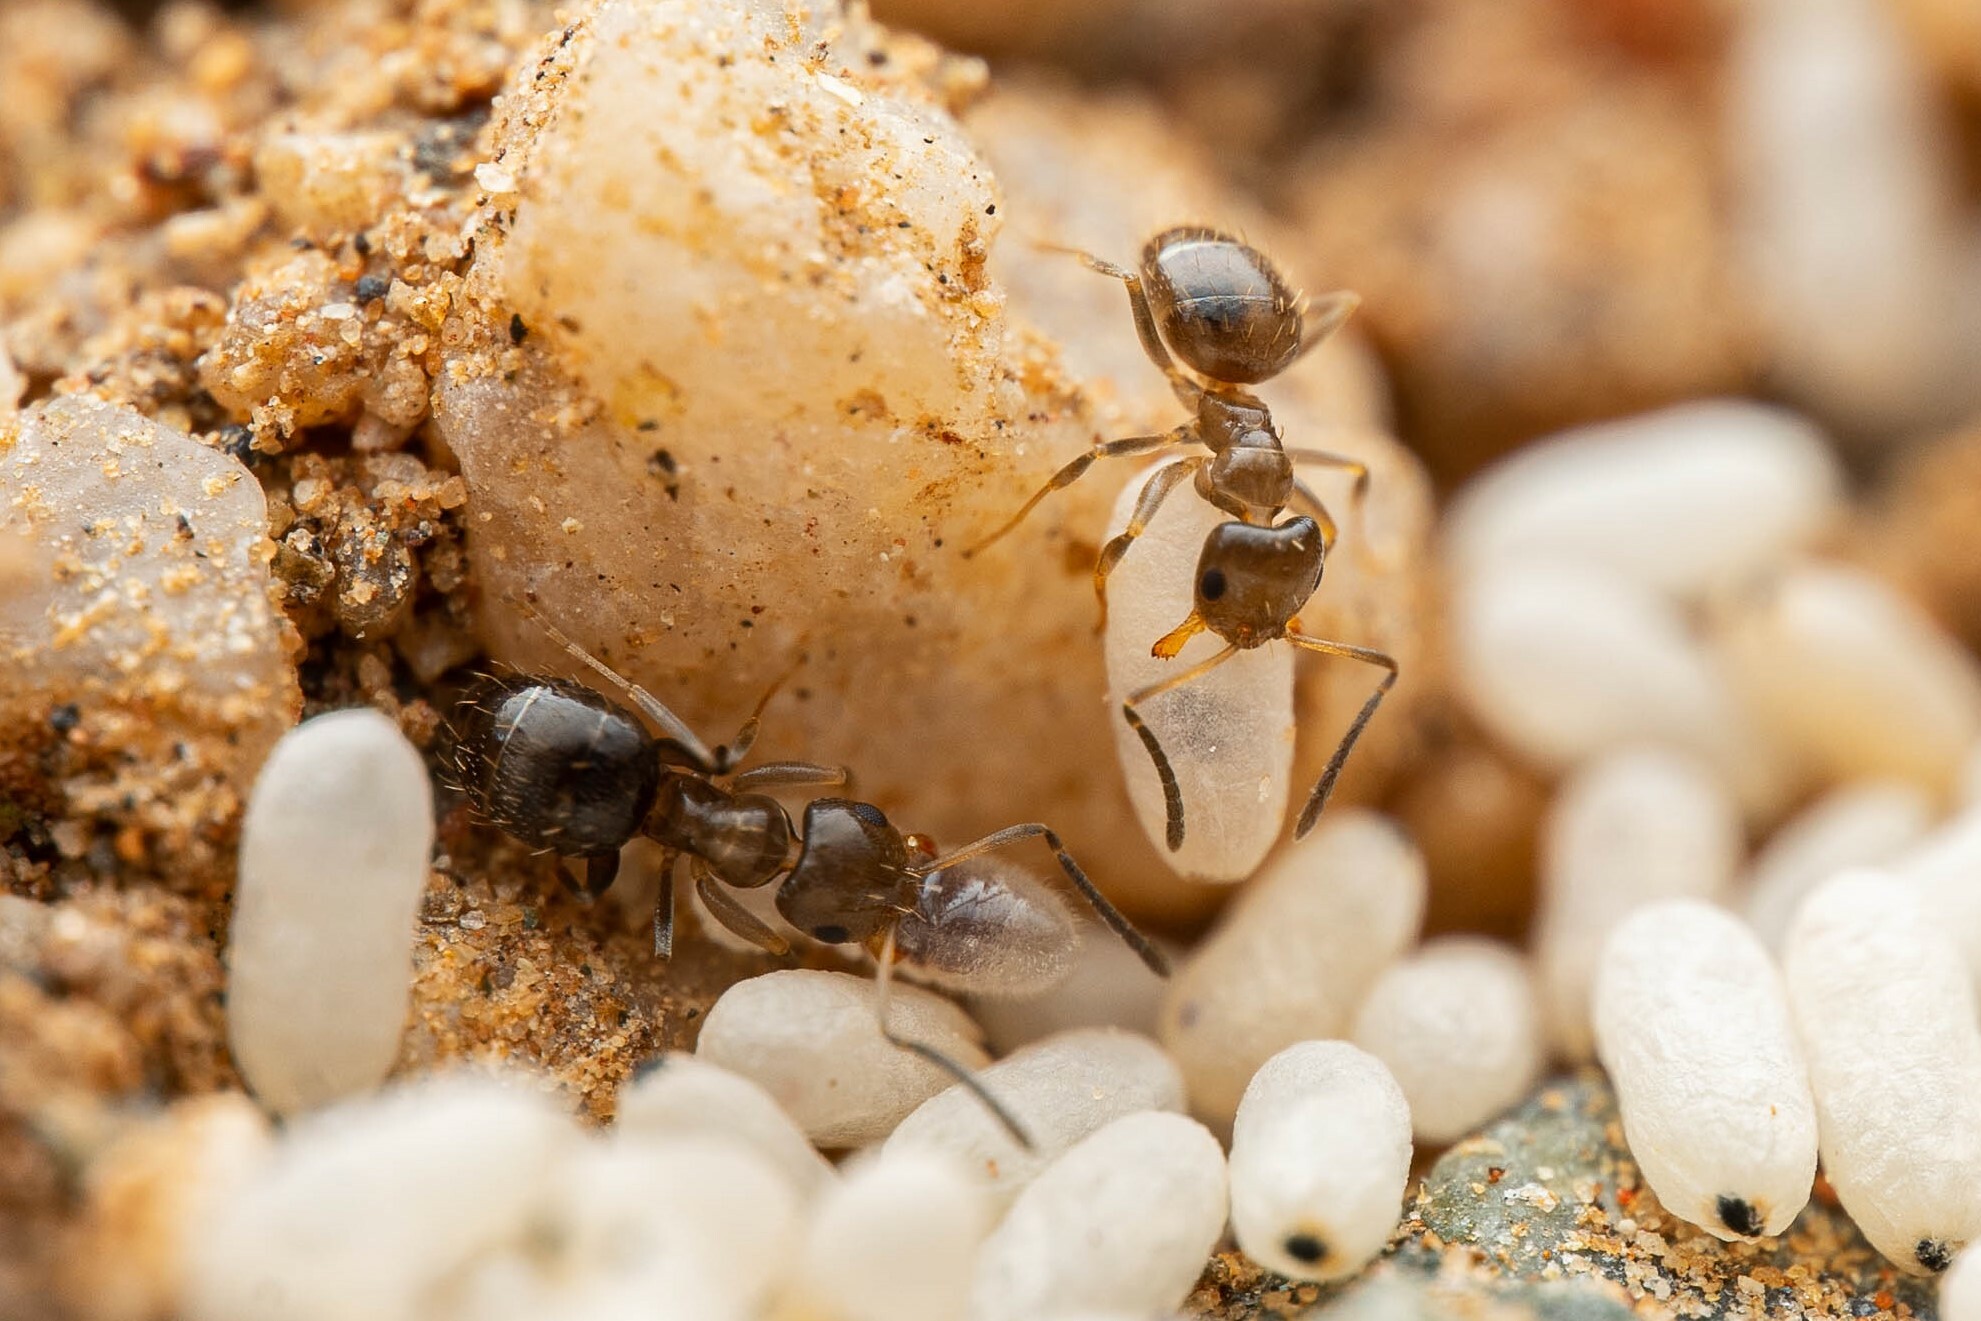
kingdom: Animalia
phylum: Arthropoda
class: Insecta
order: Hymenoptera
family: Formicidae
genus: Brachymyrmex
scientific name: Brachymyrmex patagonicus
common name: Dark rover ant
